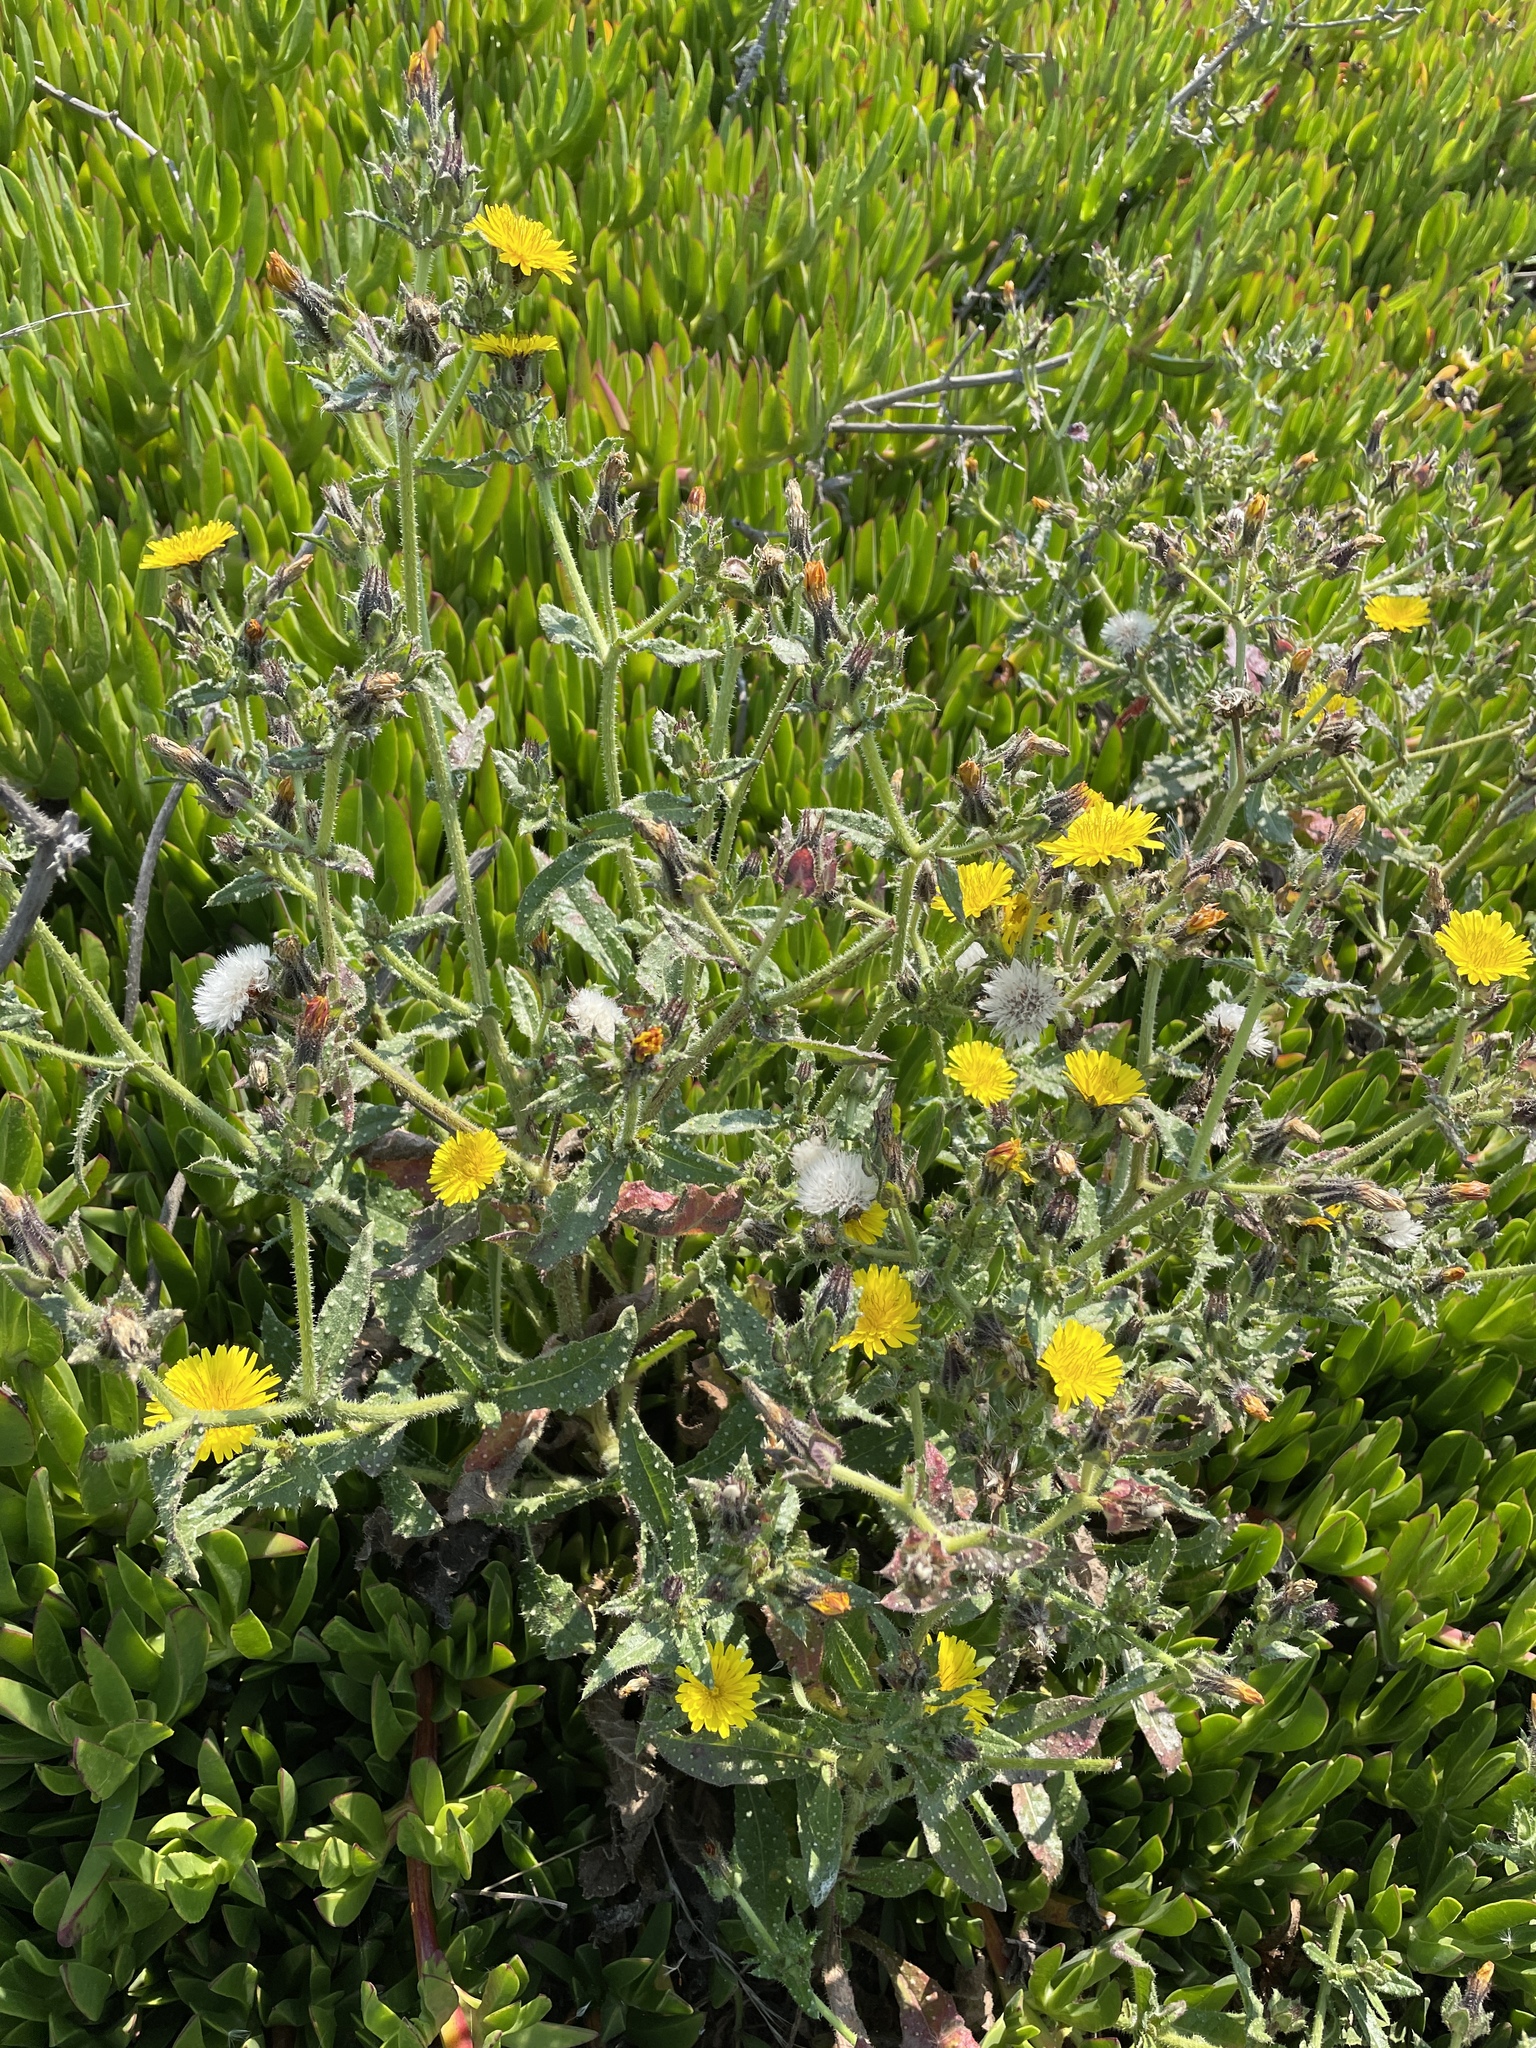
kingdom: Plantae
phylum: Tracheophyta
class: Magnoliopsida
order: Asterales
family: Asteraceae
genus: Helminthotheca
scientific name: Helminthotheca echioides
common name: Ox-tongue
